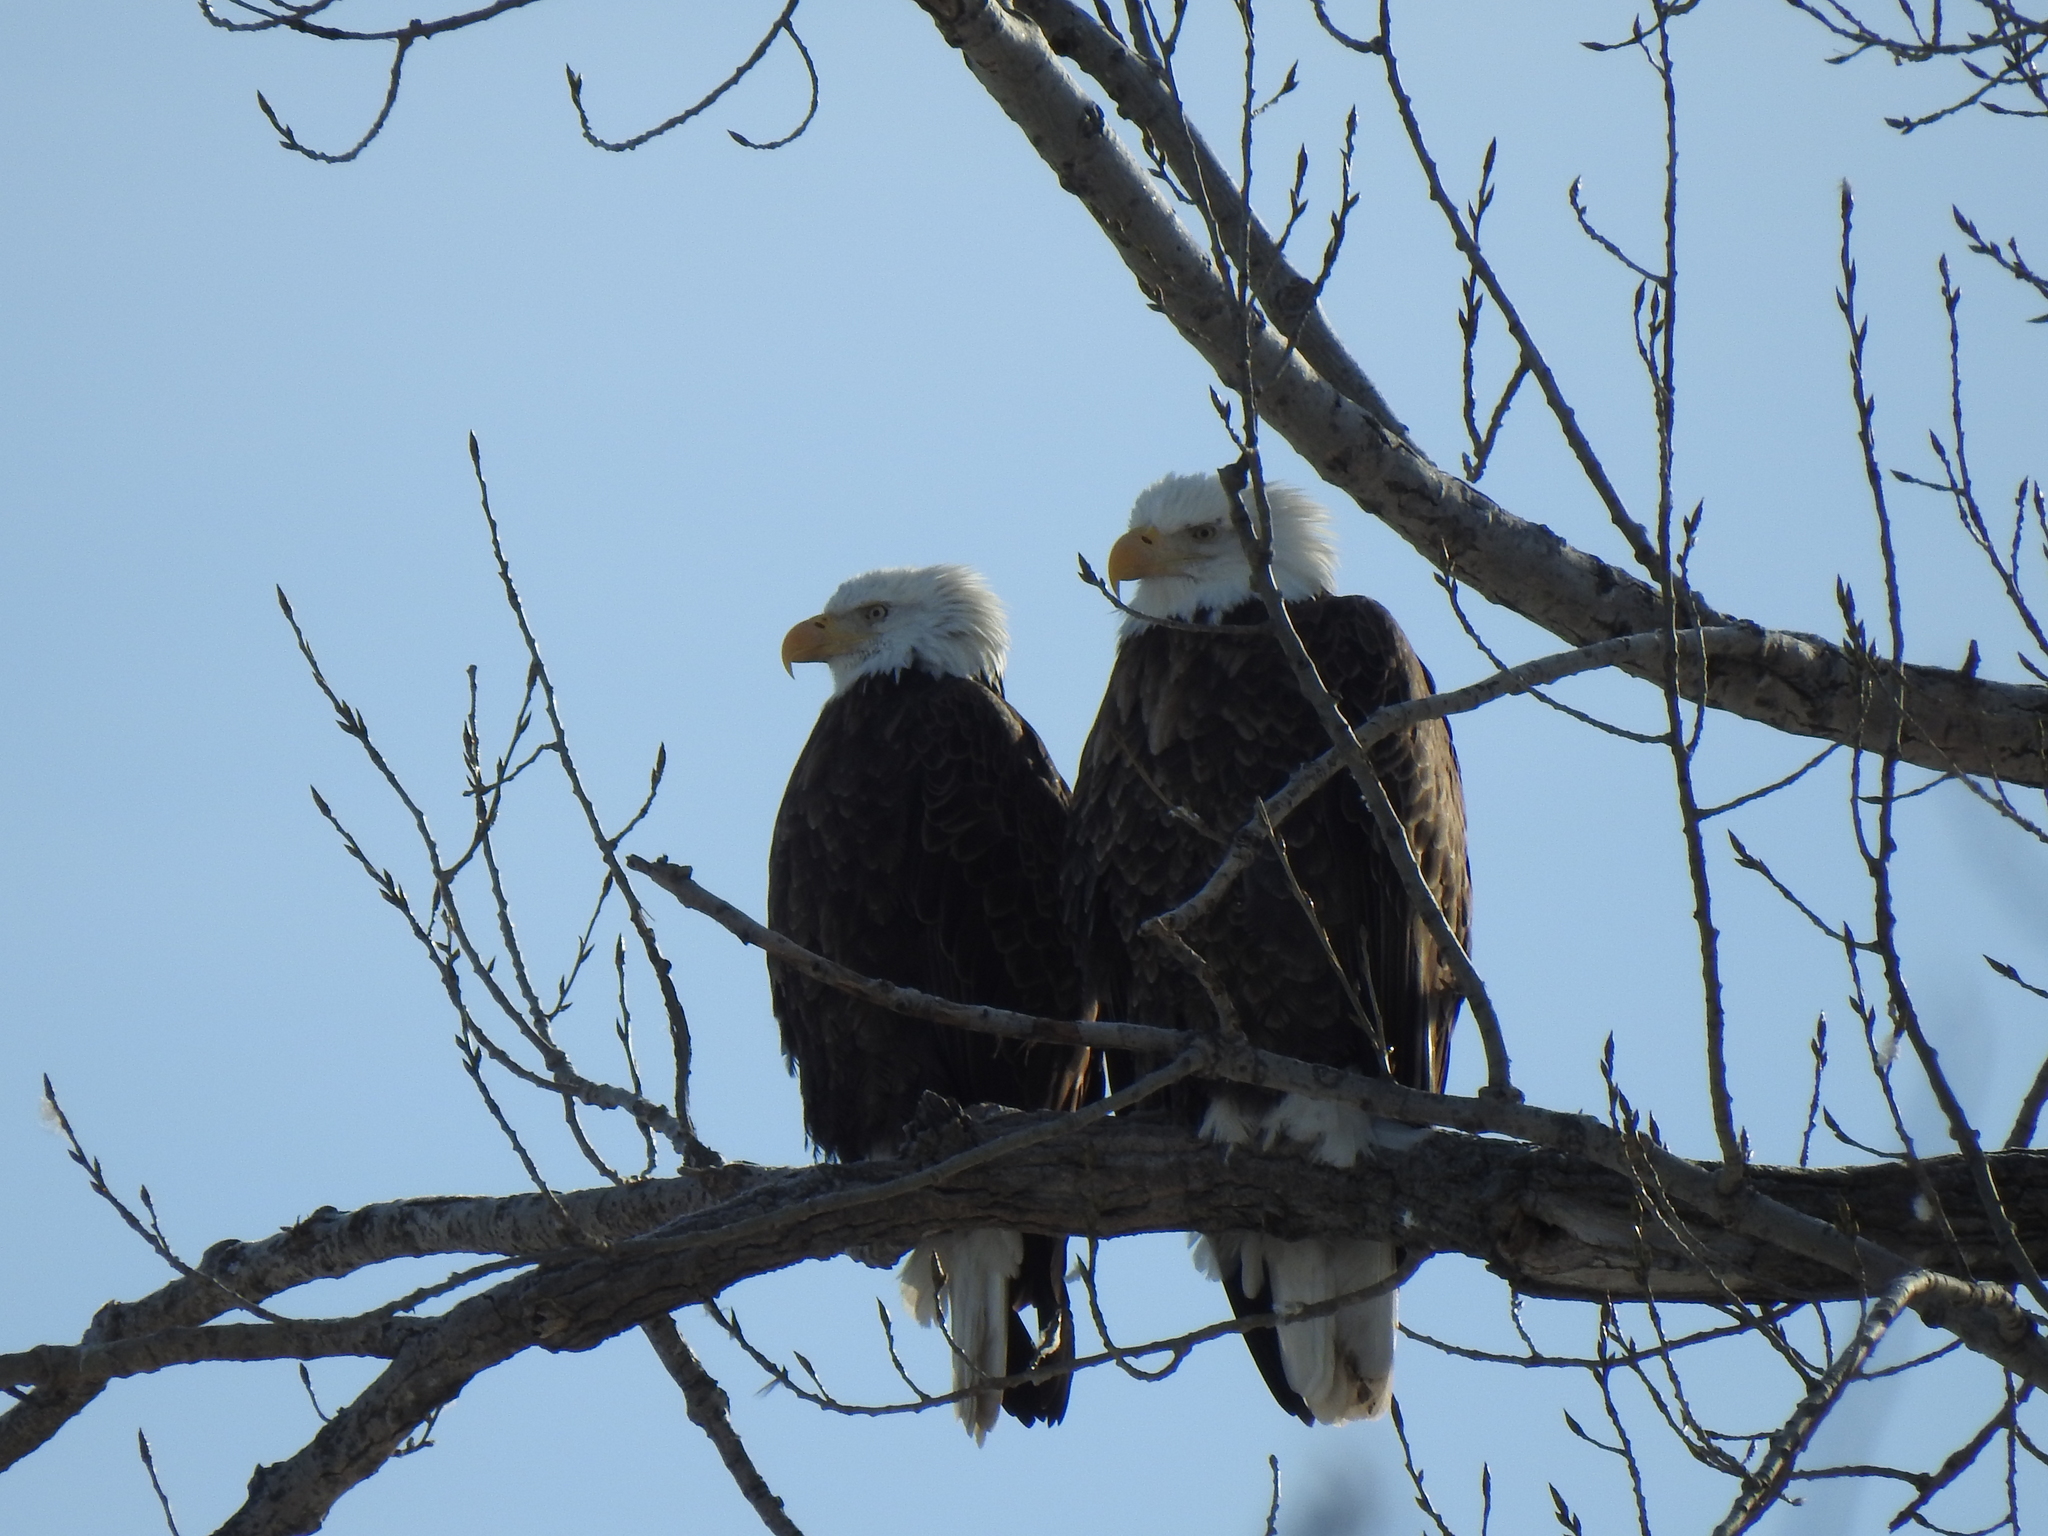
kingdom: Animalia
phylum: Chordata
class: Aves
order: Accipitriformes
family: Accipitridae
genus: Haliaeetus
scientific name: Haliaeetus leucocephalus
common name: Bald eagle
